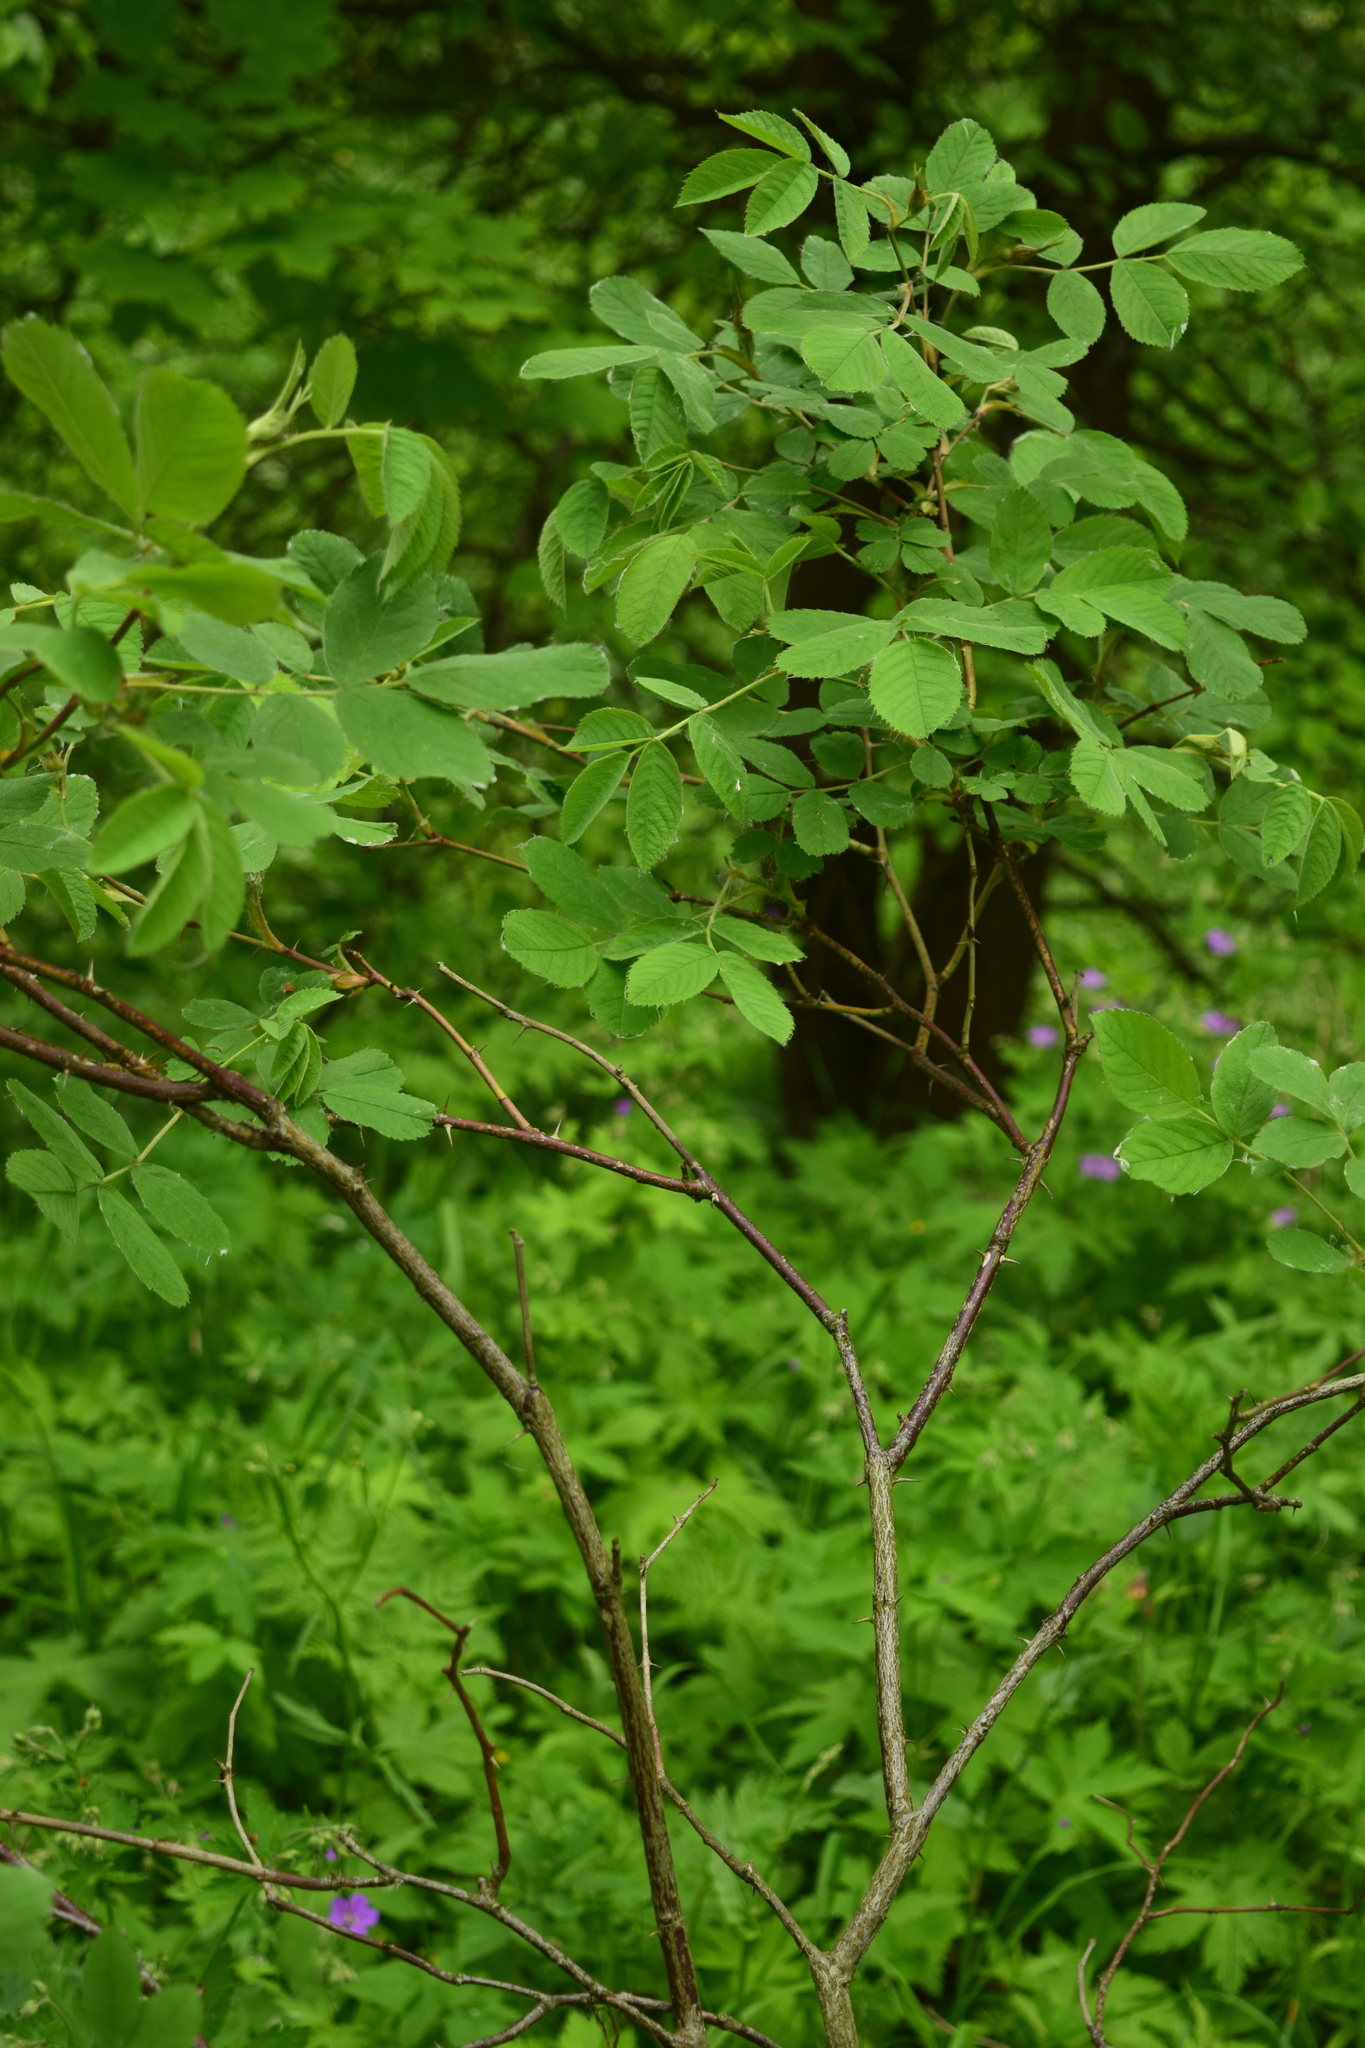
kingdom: Plantae
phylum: Tracheophyta
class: Magnoliopsida
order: Rosales
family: Rosaceae
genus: Rosa
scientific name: Rosa
